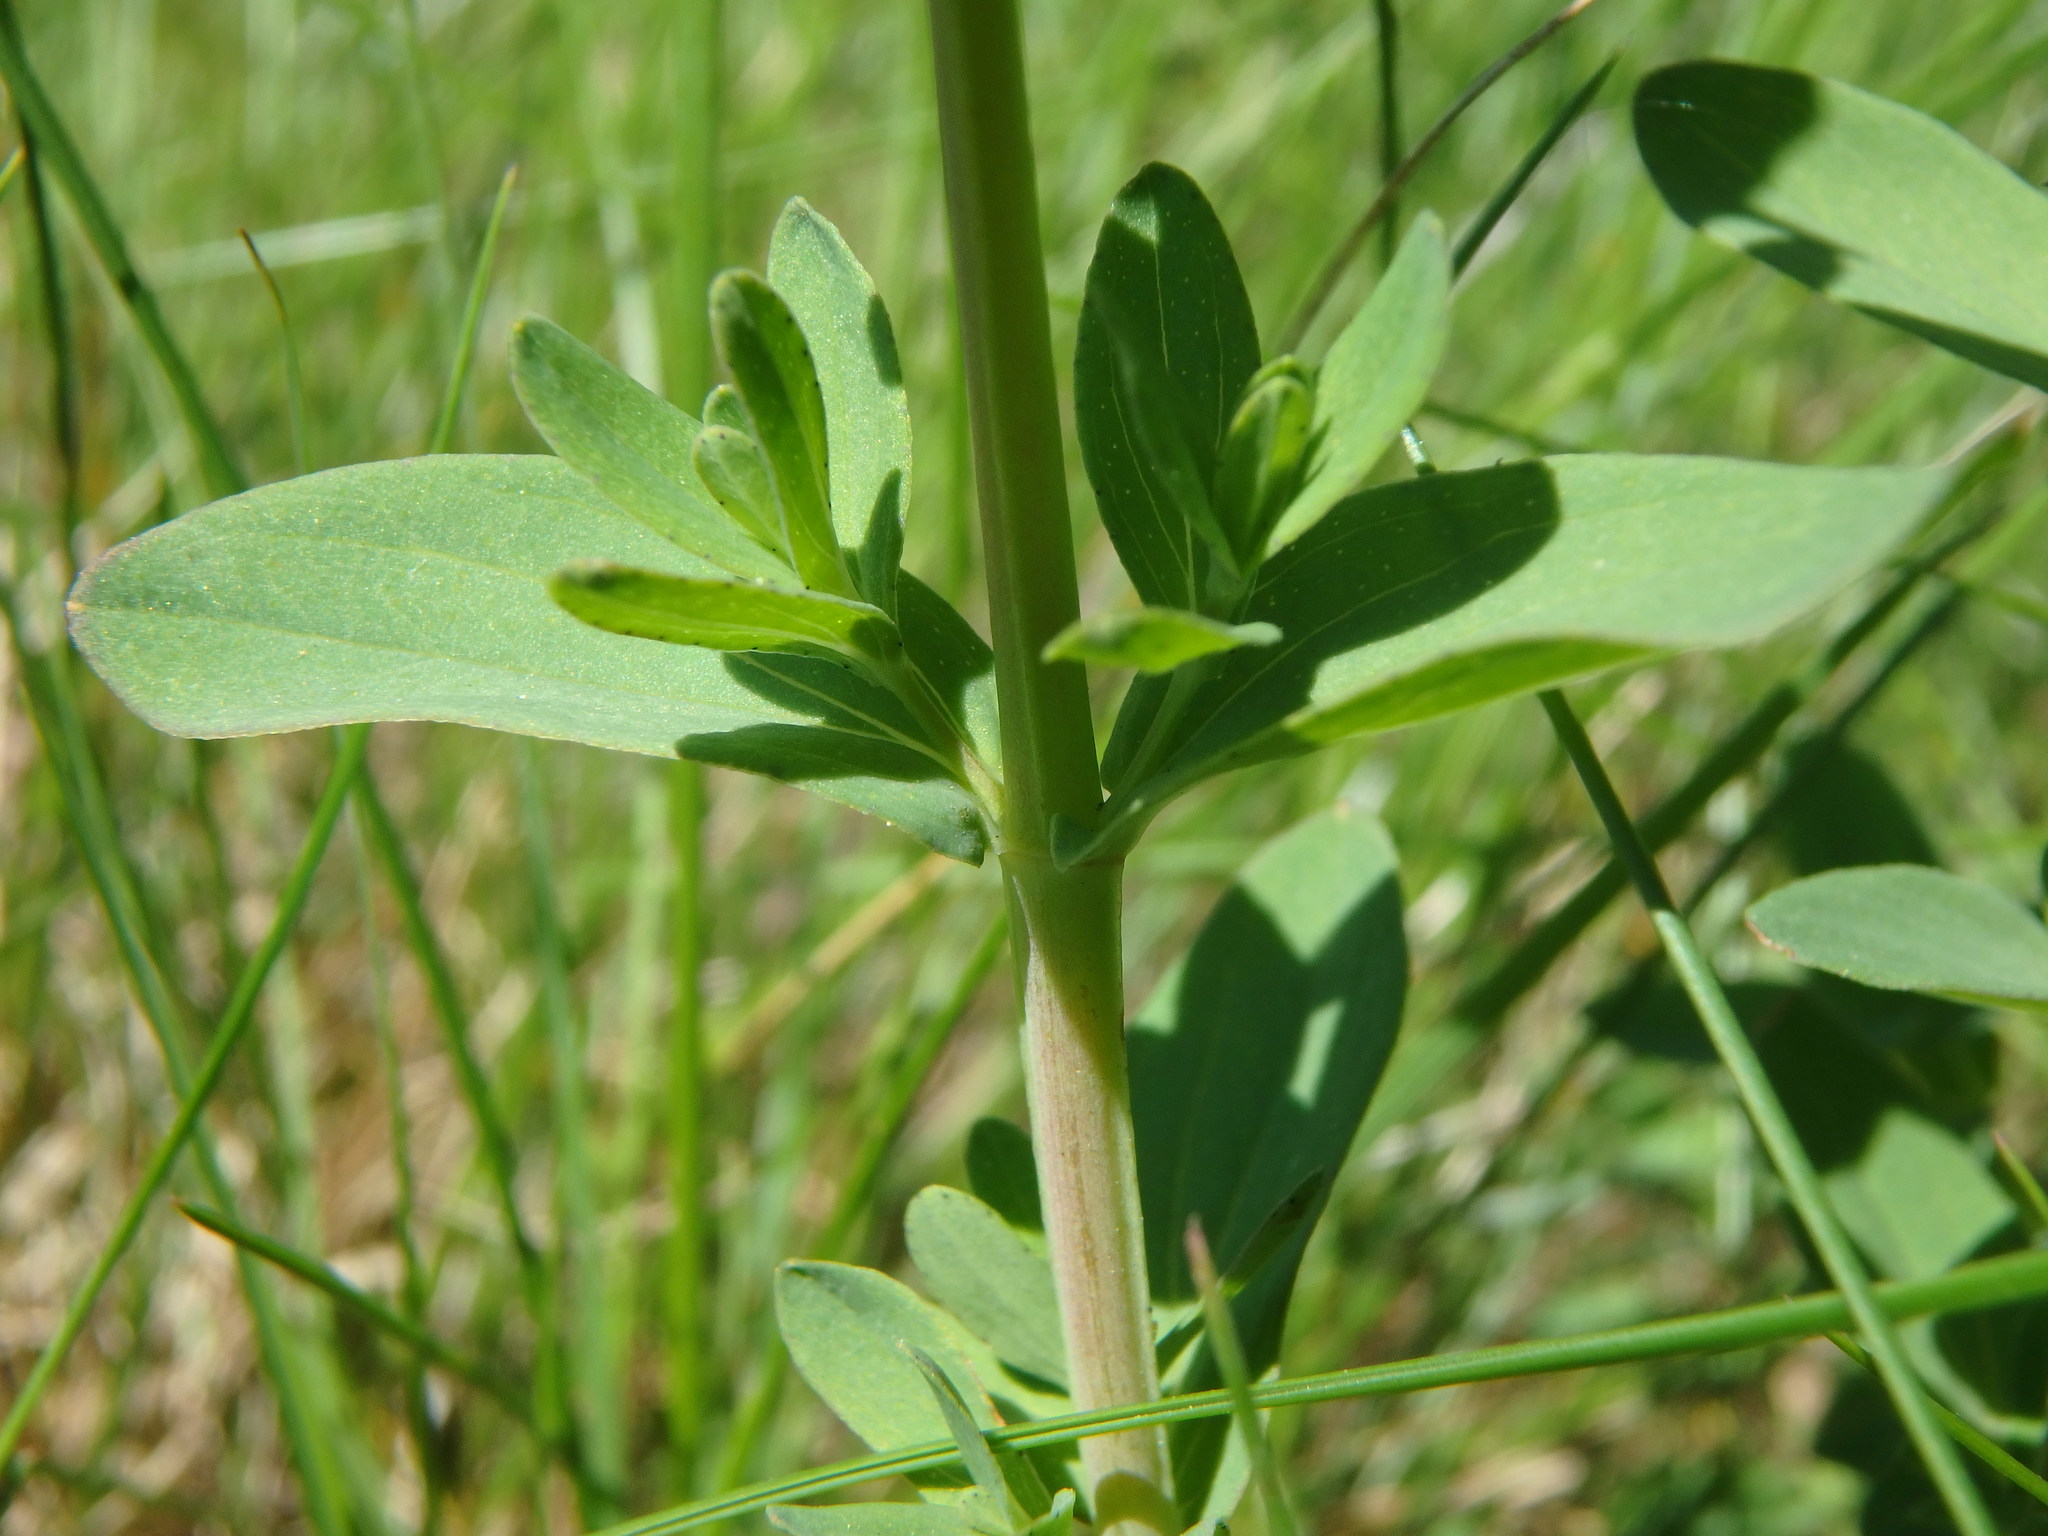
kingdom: Plantae
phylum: Tracheophyta
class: Magnoliopsida
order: Malpighiales
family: Hypericaceae
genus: Hypericum
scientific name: Hypericum perforatum
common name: Common st. johnswort
